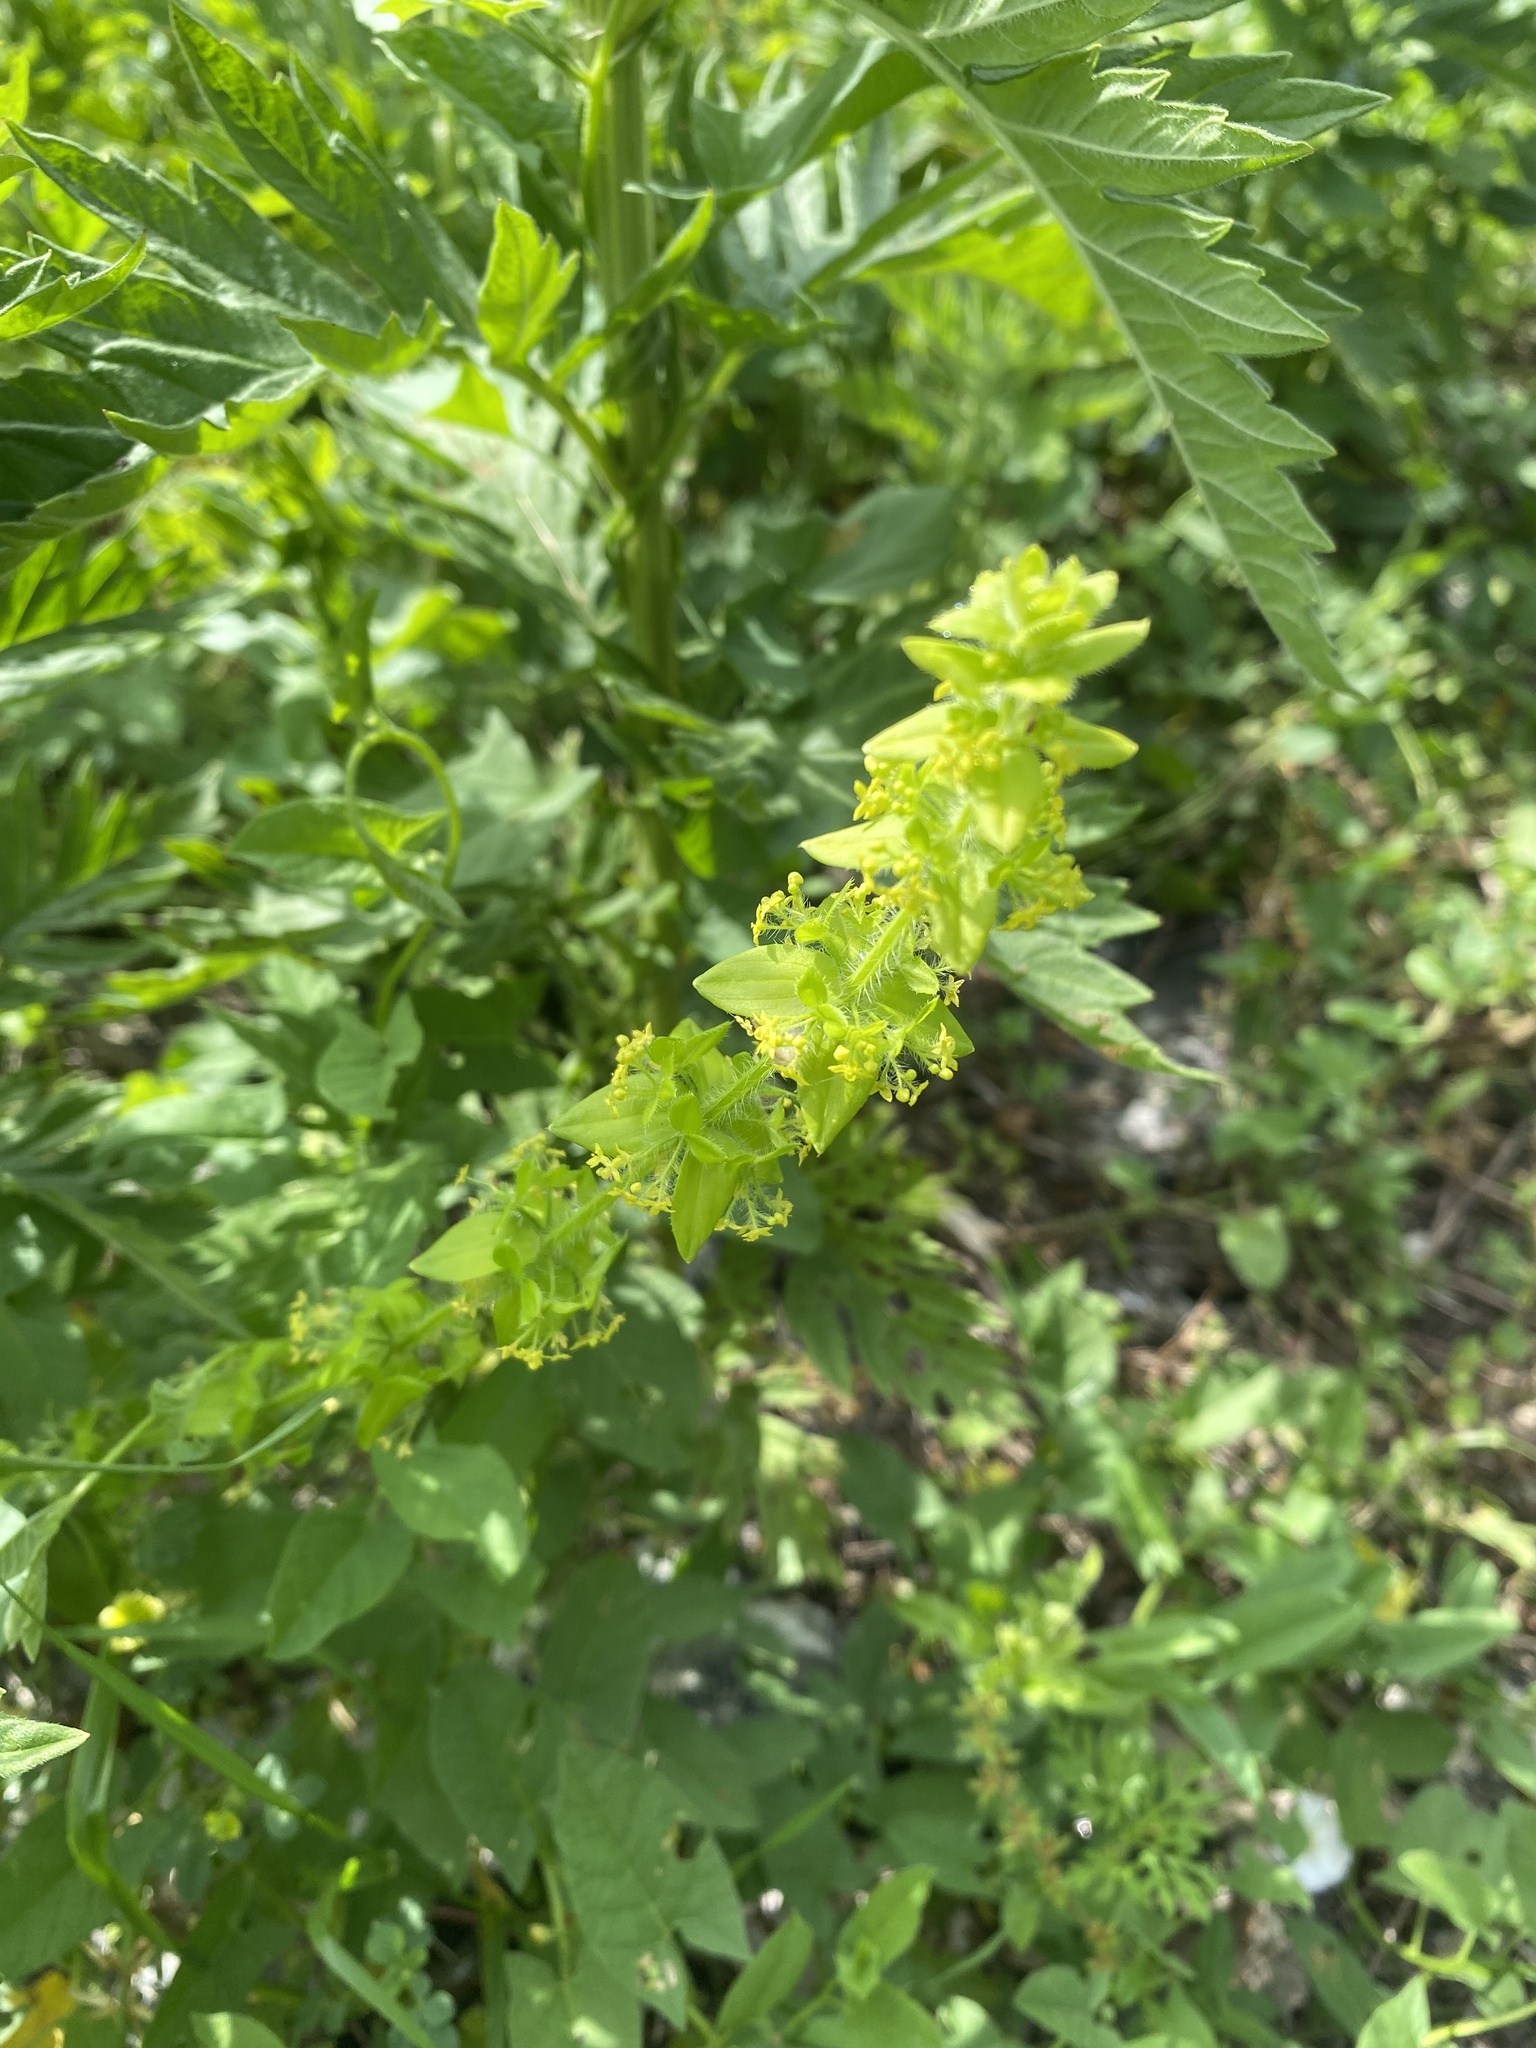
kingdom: Plantae
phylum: Tracheophyta
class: Magnoliopsida
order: Gentianales
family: Rubiaceae
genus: Cruciata
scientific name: Cruciata laevipes
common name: Crosswort
